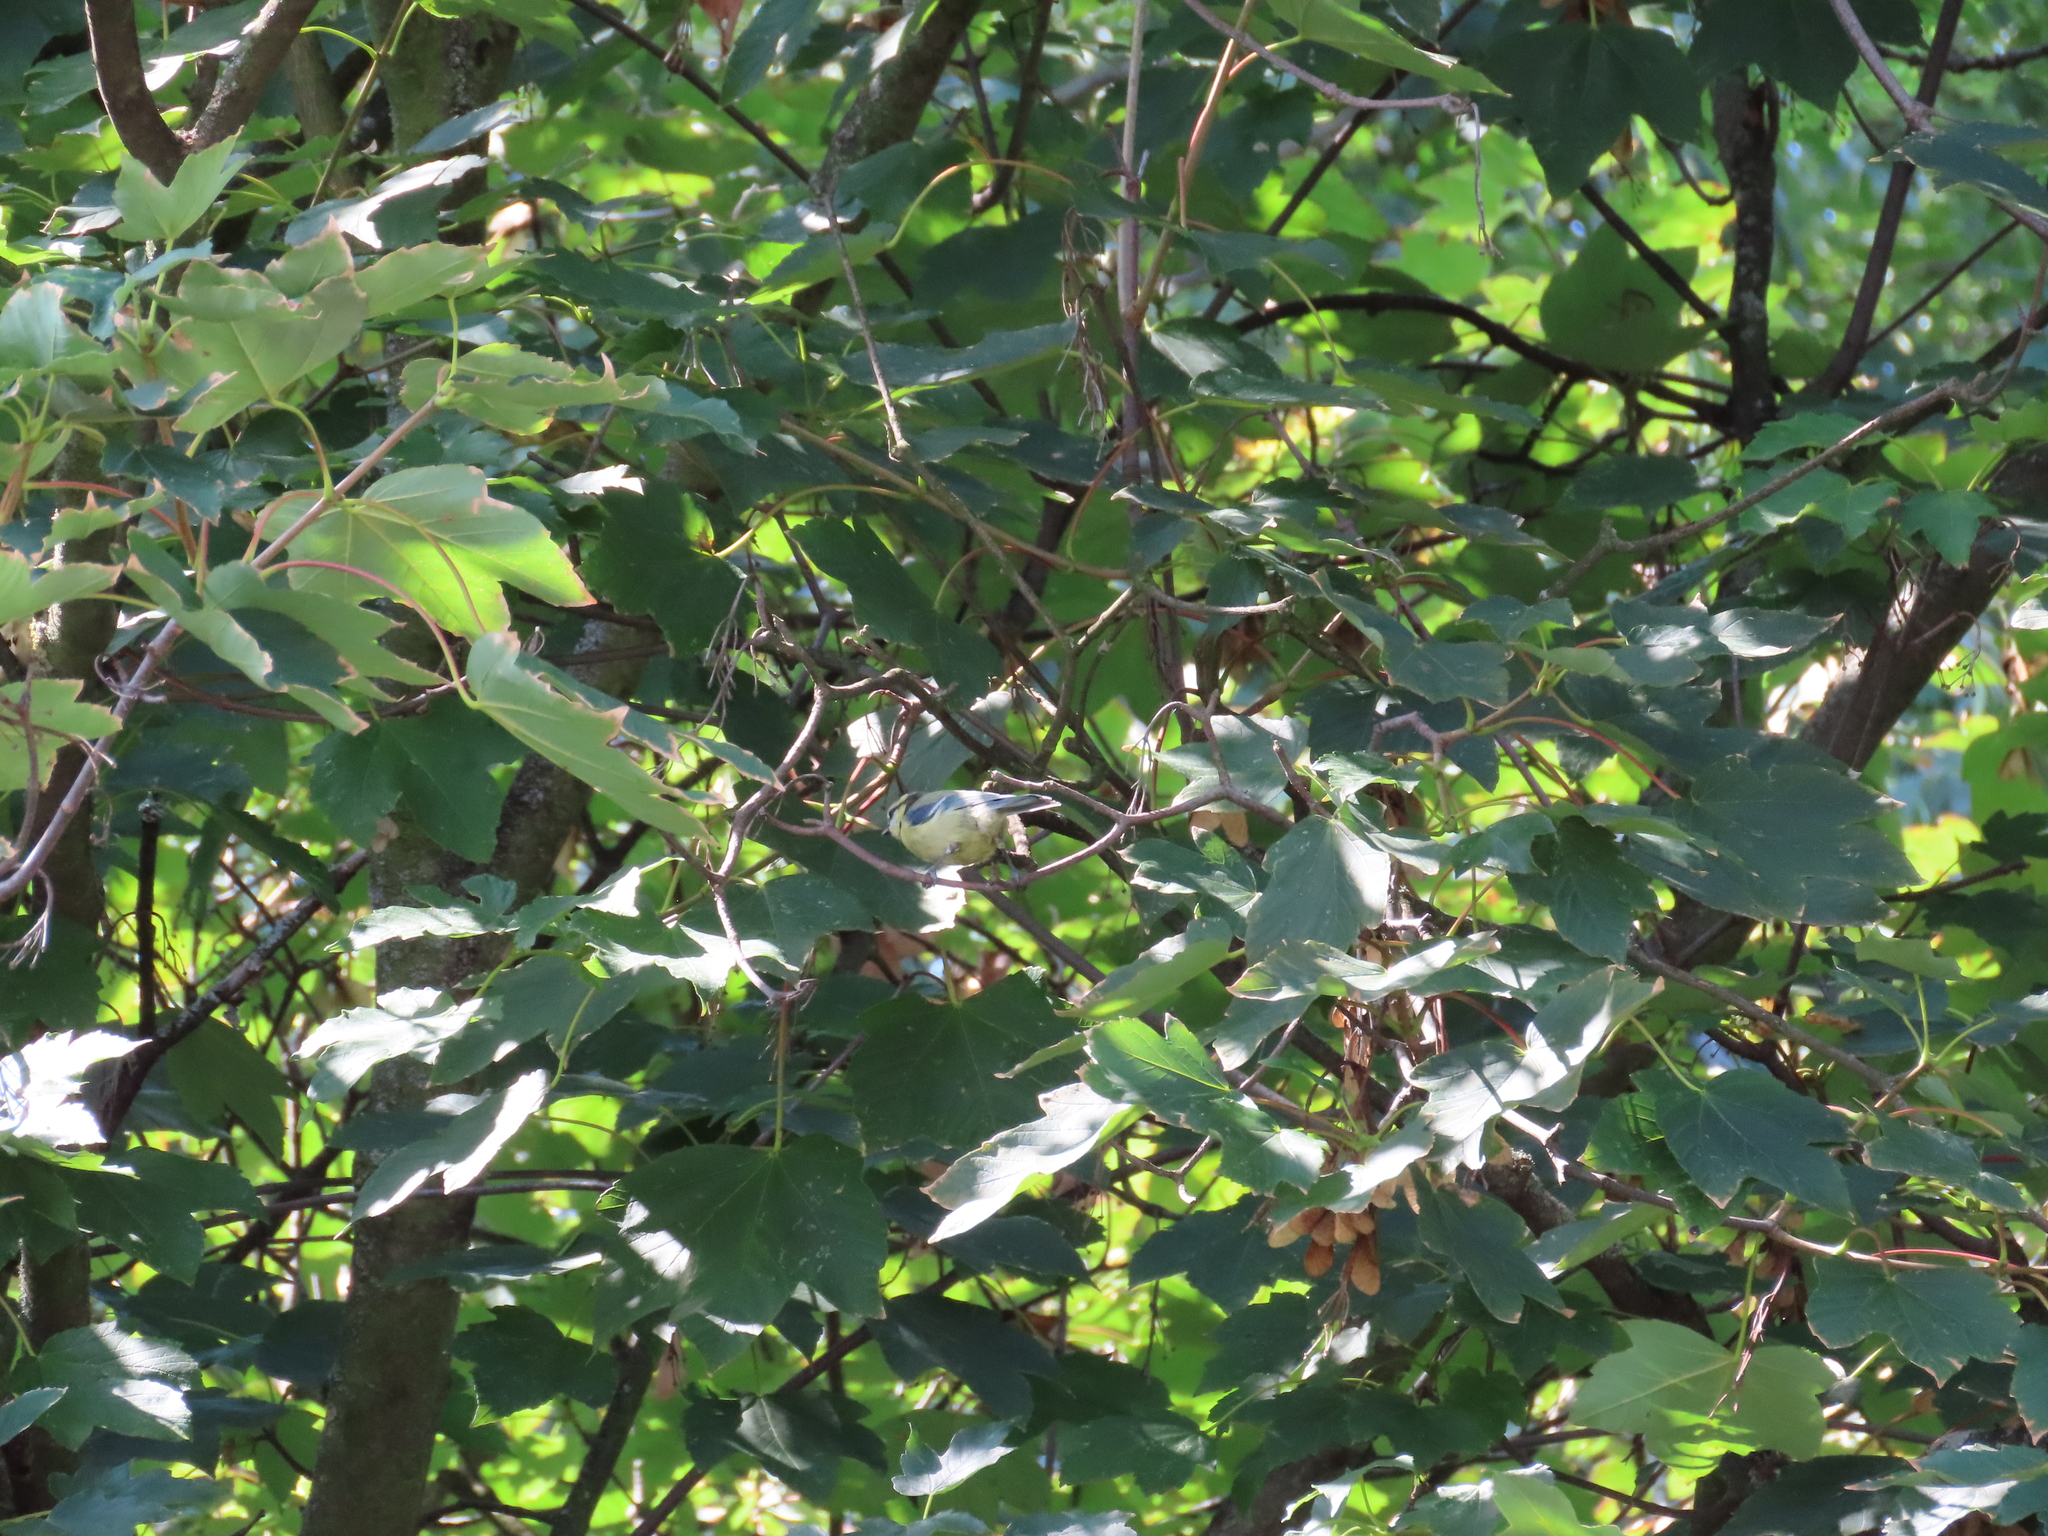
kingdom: Animalia
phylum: Chordata
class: Aves
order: Passeriformes
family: Paridae
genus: Cyanistes
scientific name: Cyanistes caeruleus
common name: Eurasian blue tit
